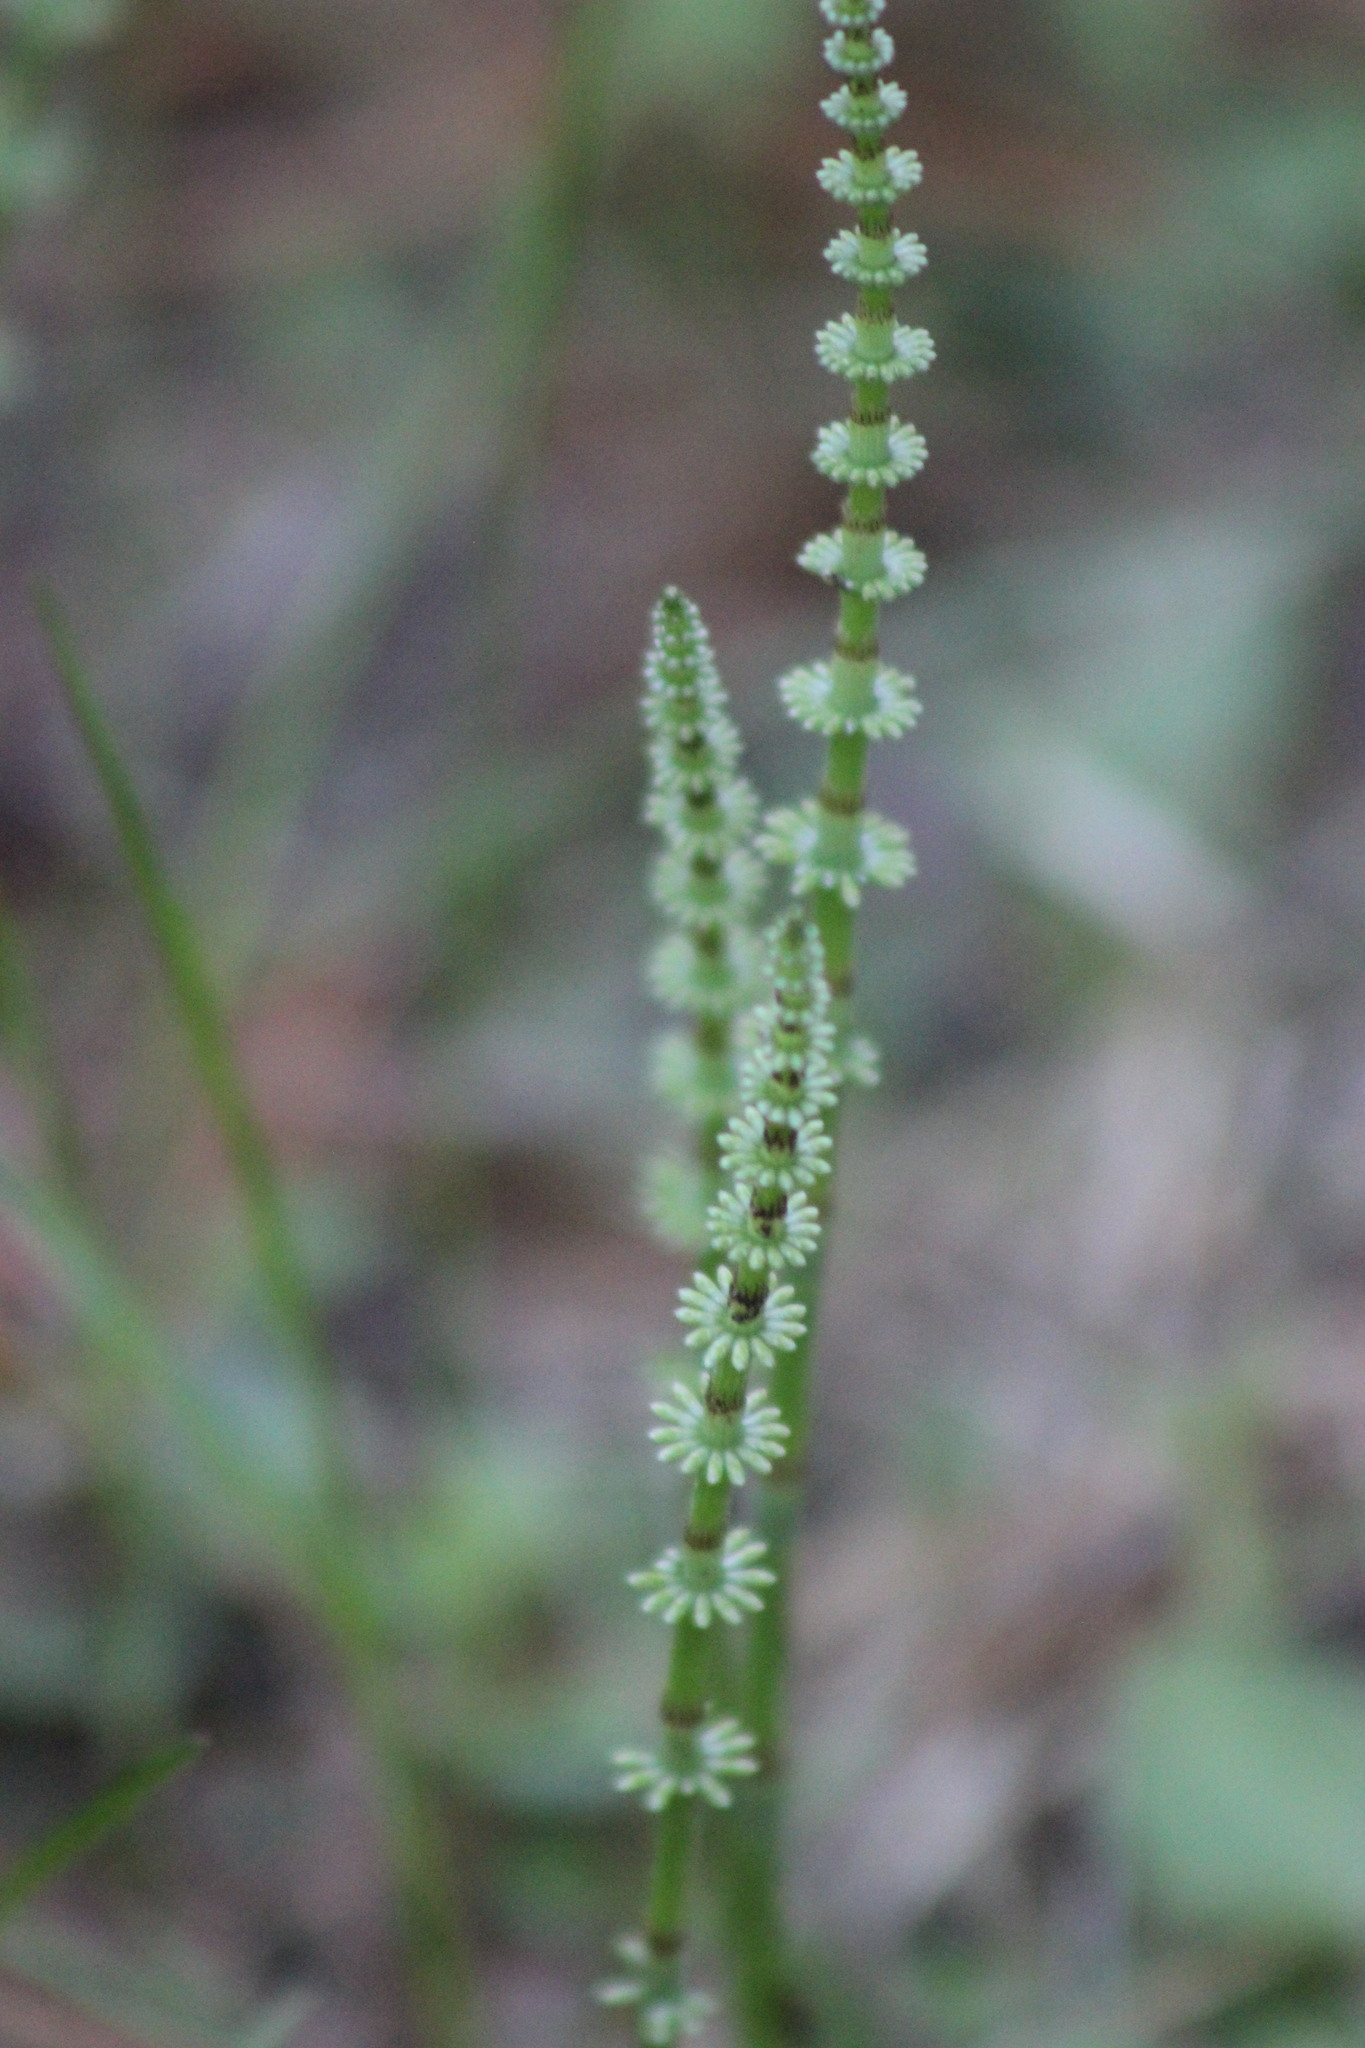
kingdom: Plantae
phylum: Tracheophyta
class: Polypodiopsida
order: Equisetales
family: Equisetaceae
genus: Equisetum
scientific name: Equisetum pratense
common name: Meadow horsetail
